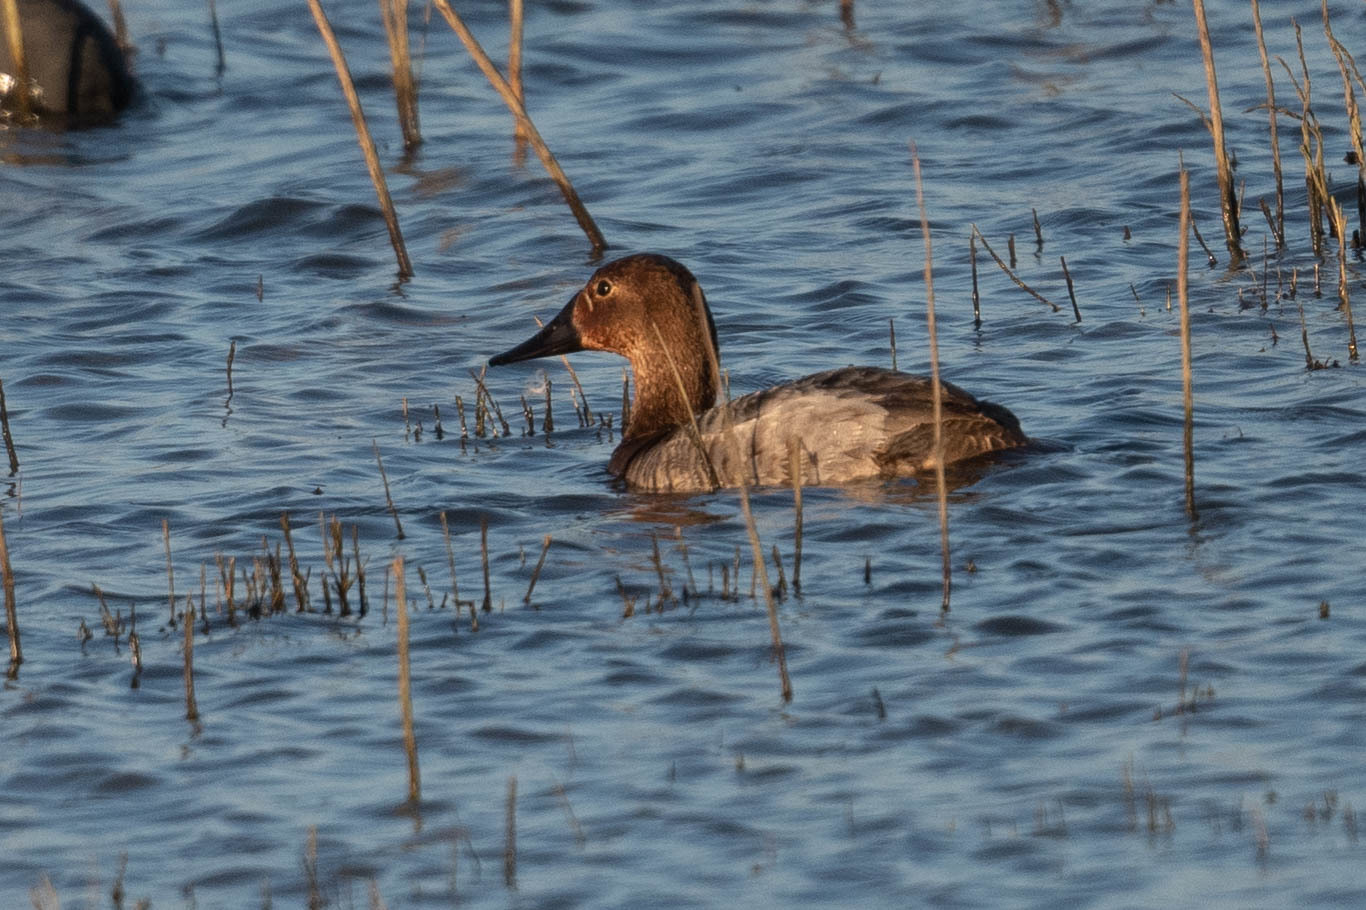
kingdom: Animalia
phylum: Chordata
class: Aves
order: Anseriformes
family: Anatidae
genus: Aythya
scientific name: Aythya valisineria
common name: Canvasback
